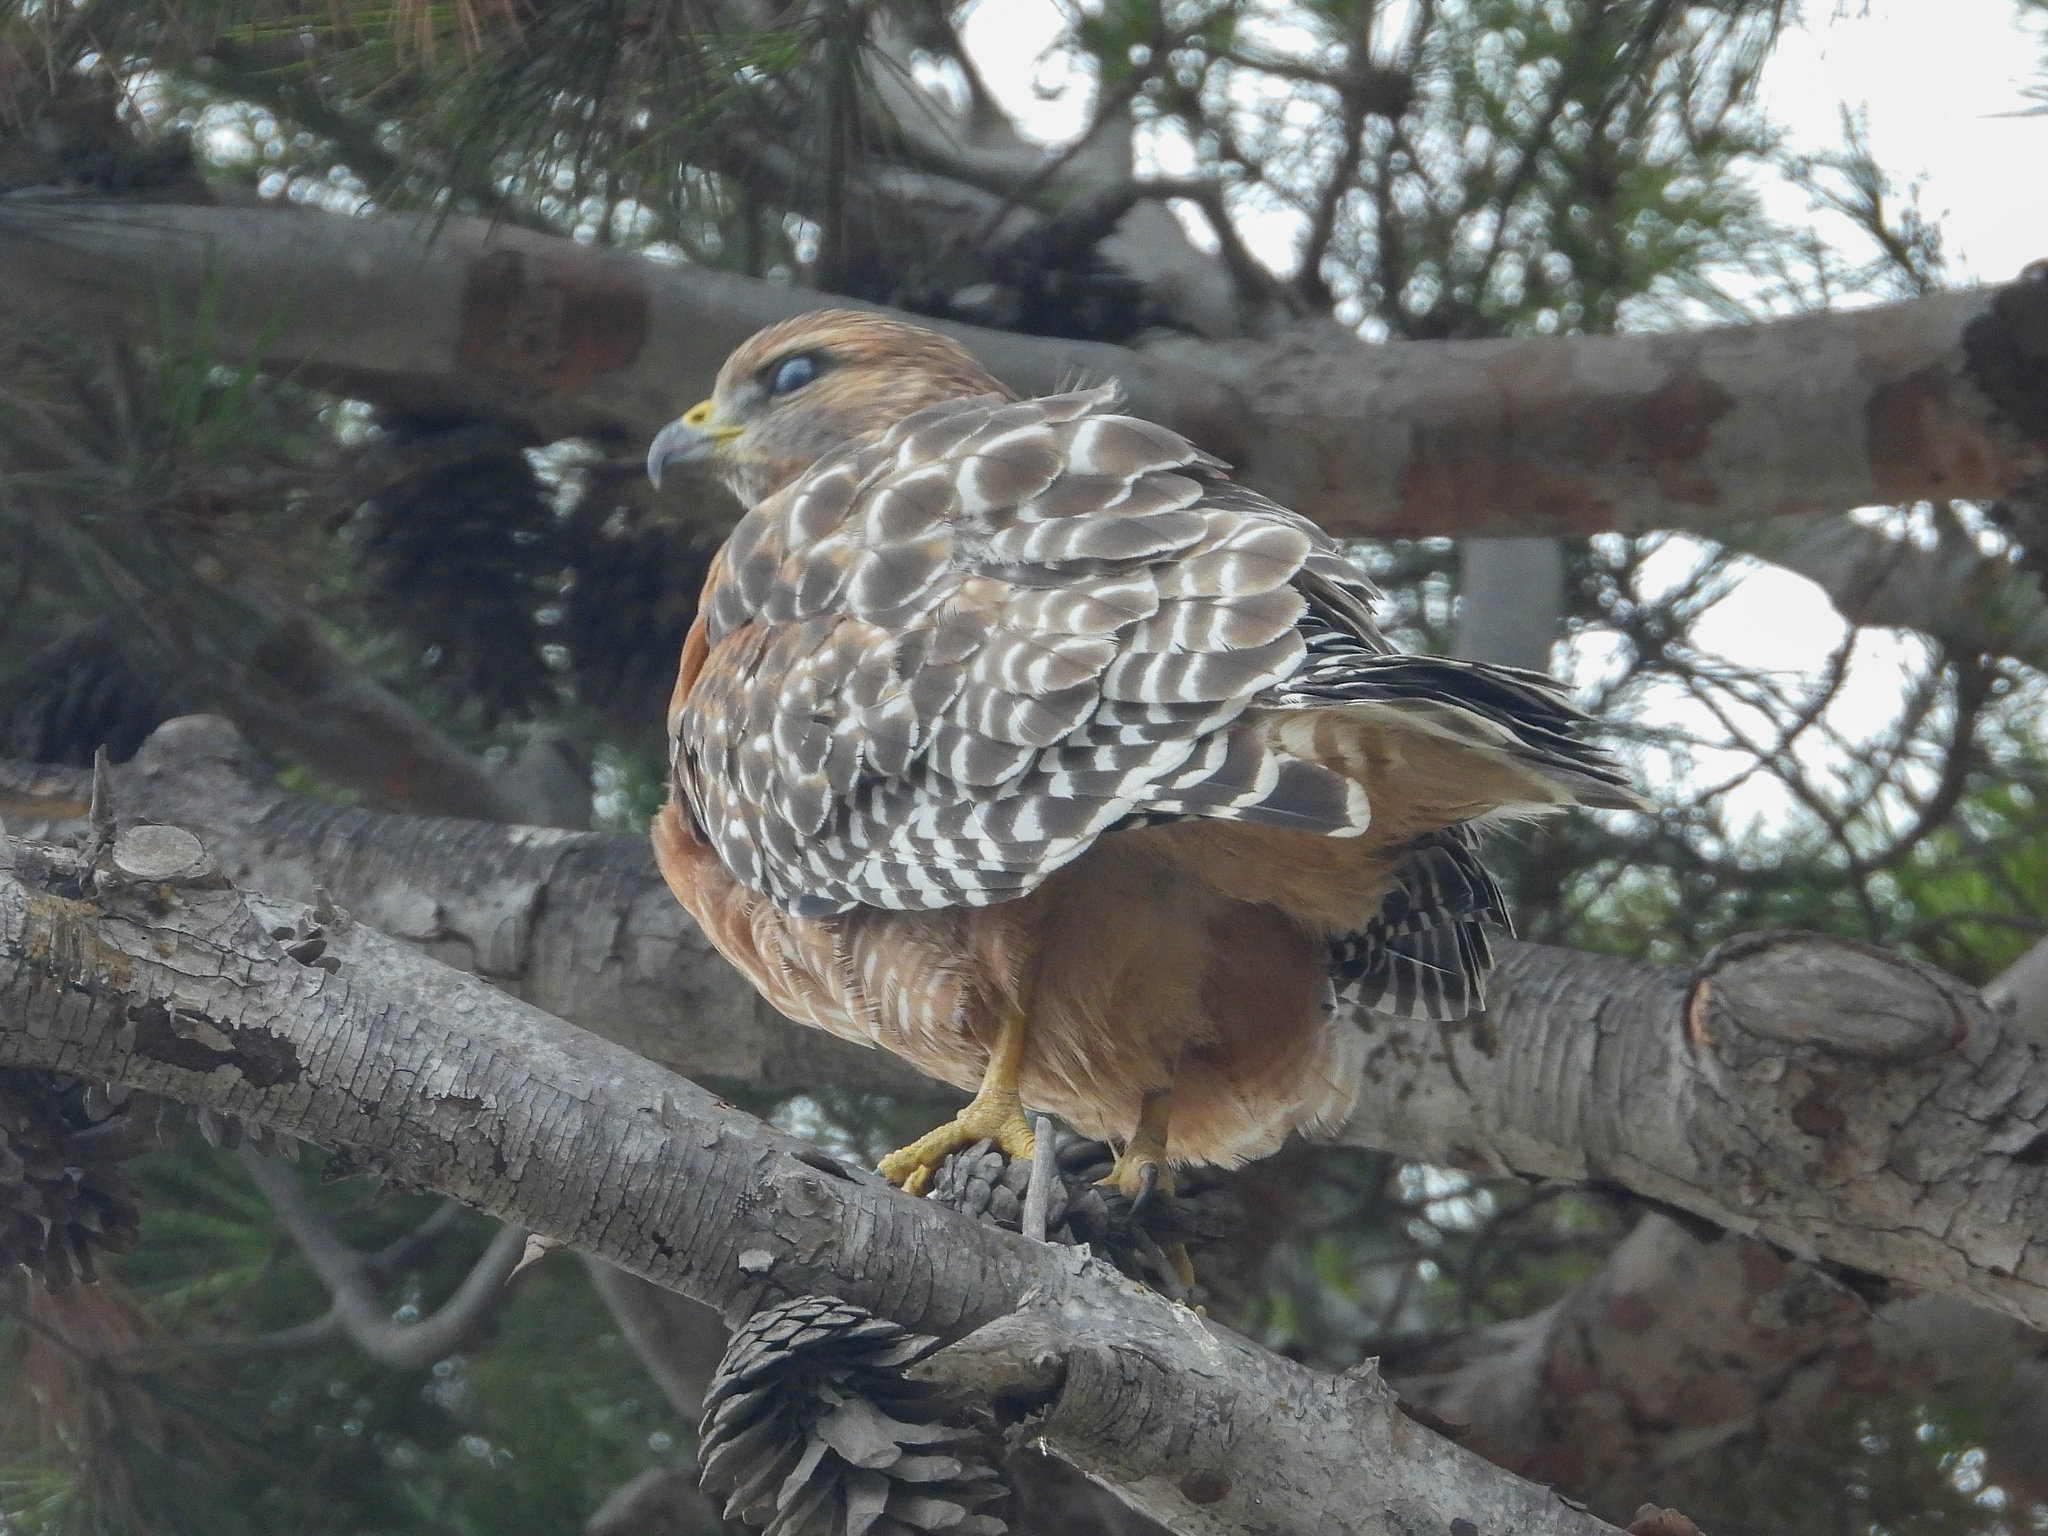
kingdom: Animalia
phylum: Chordata
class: Aves
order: Accipitriformes
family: Accipitridae
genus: Buteo
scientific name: Buteo lineatus
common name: Red-shouldered hawk
